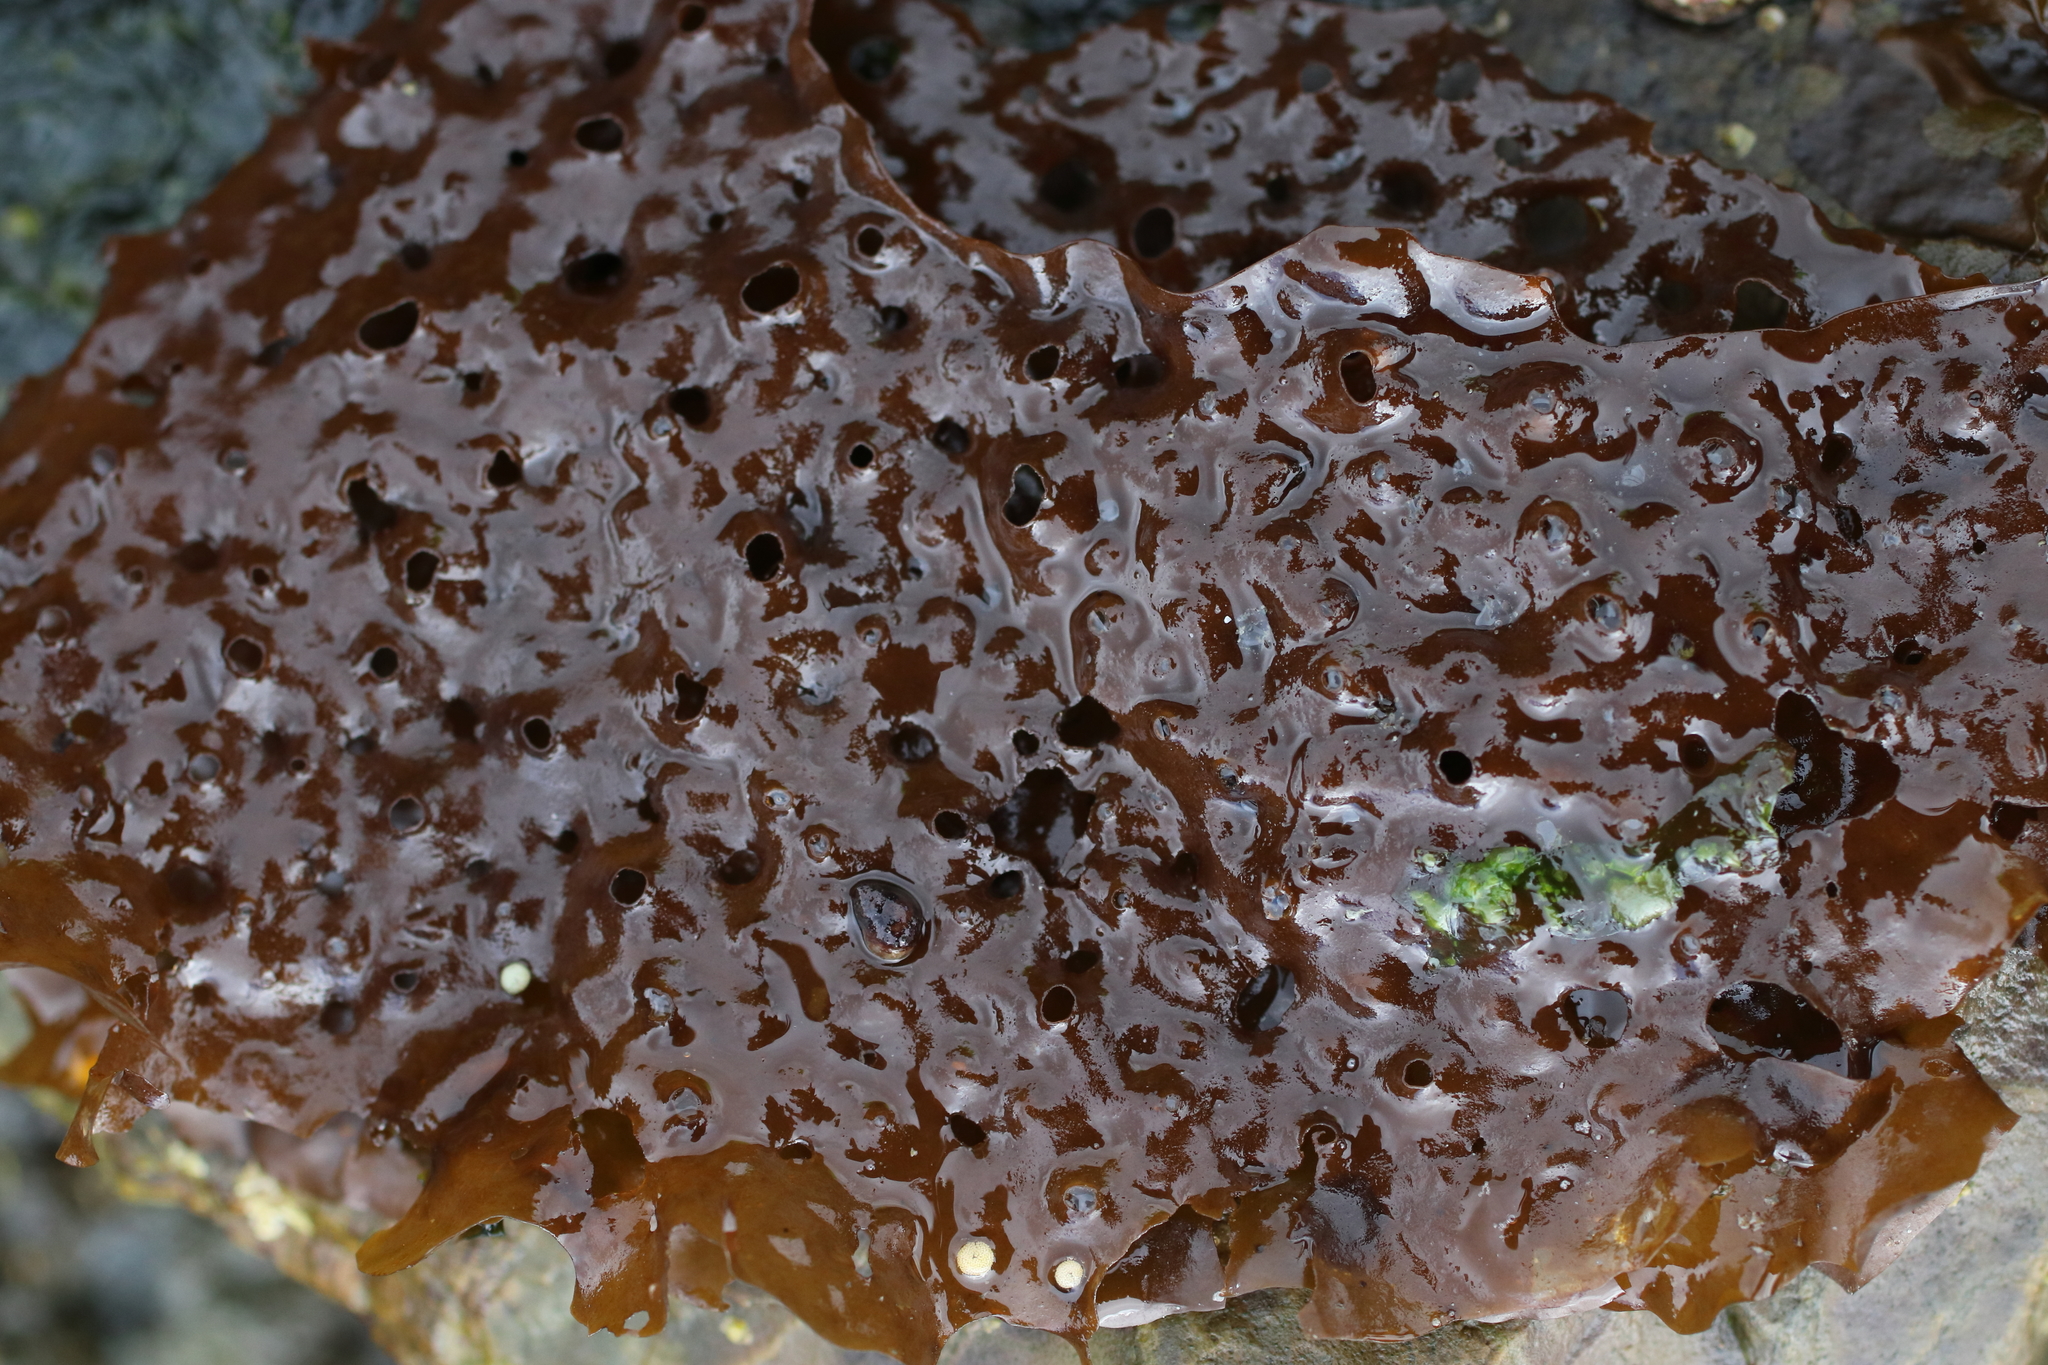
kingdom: Chromista
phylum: Ochrophyta
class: Phaeophyceae
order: Laminariales
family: Costariaceae
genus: Agarum
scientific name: Agarum clathratum
